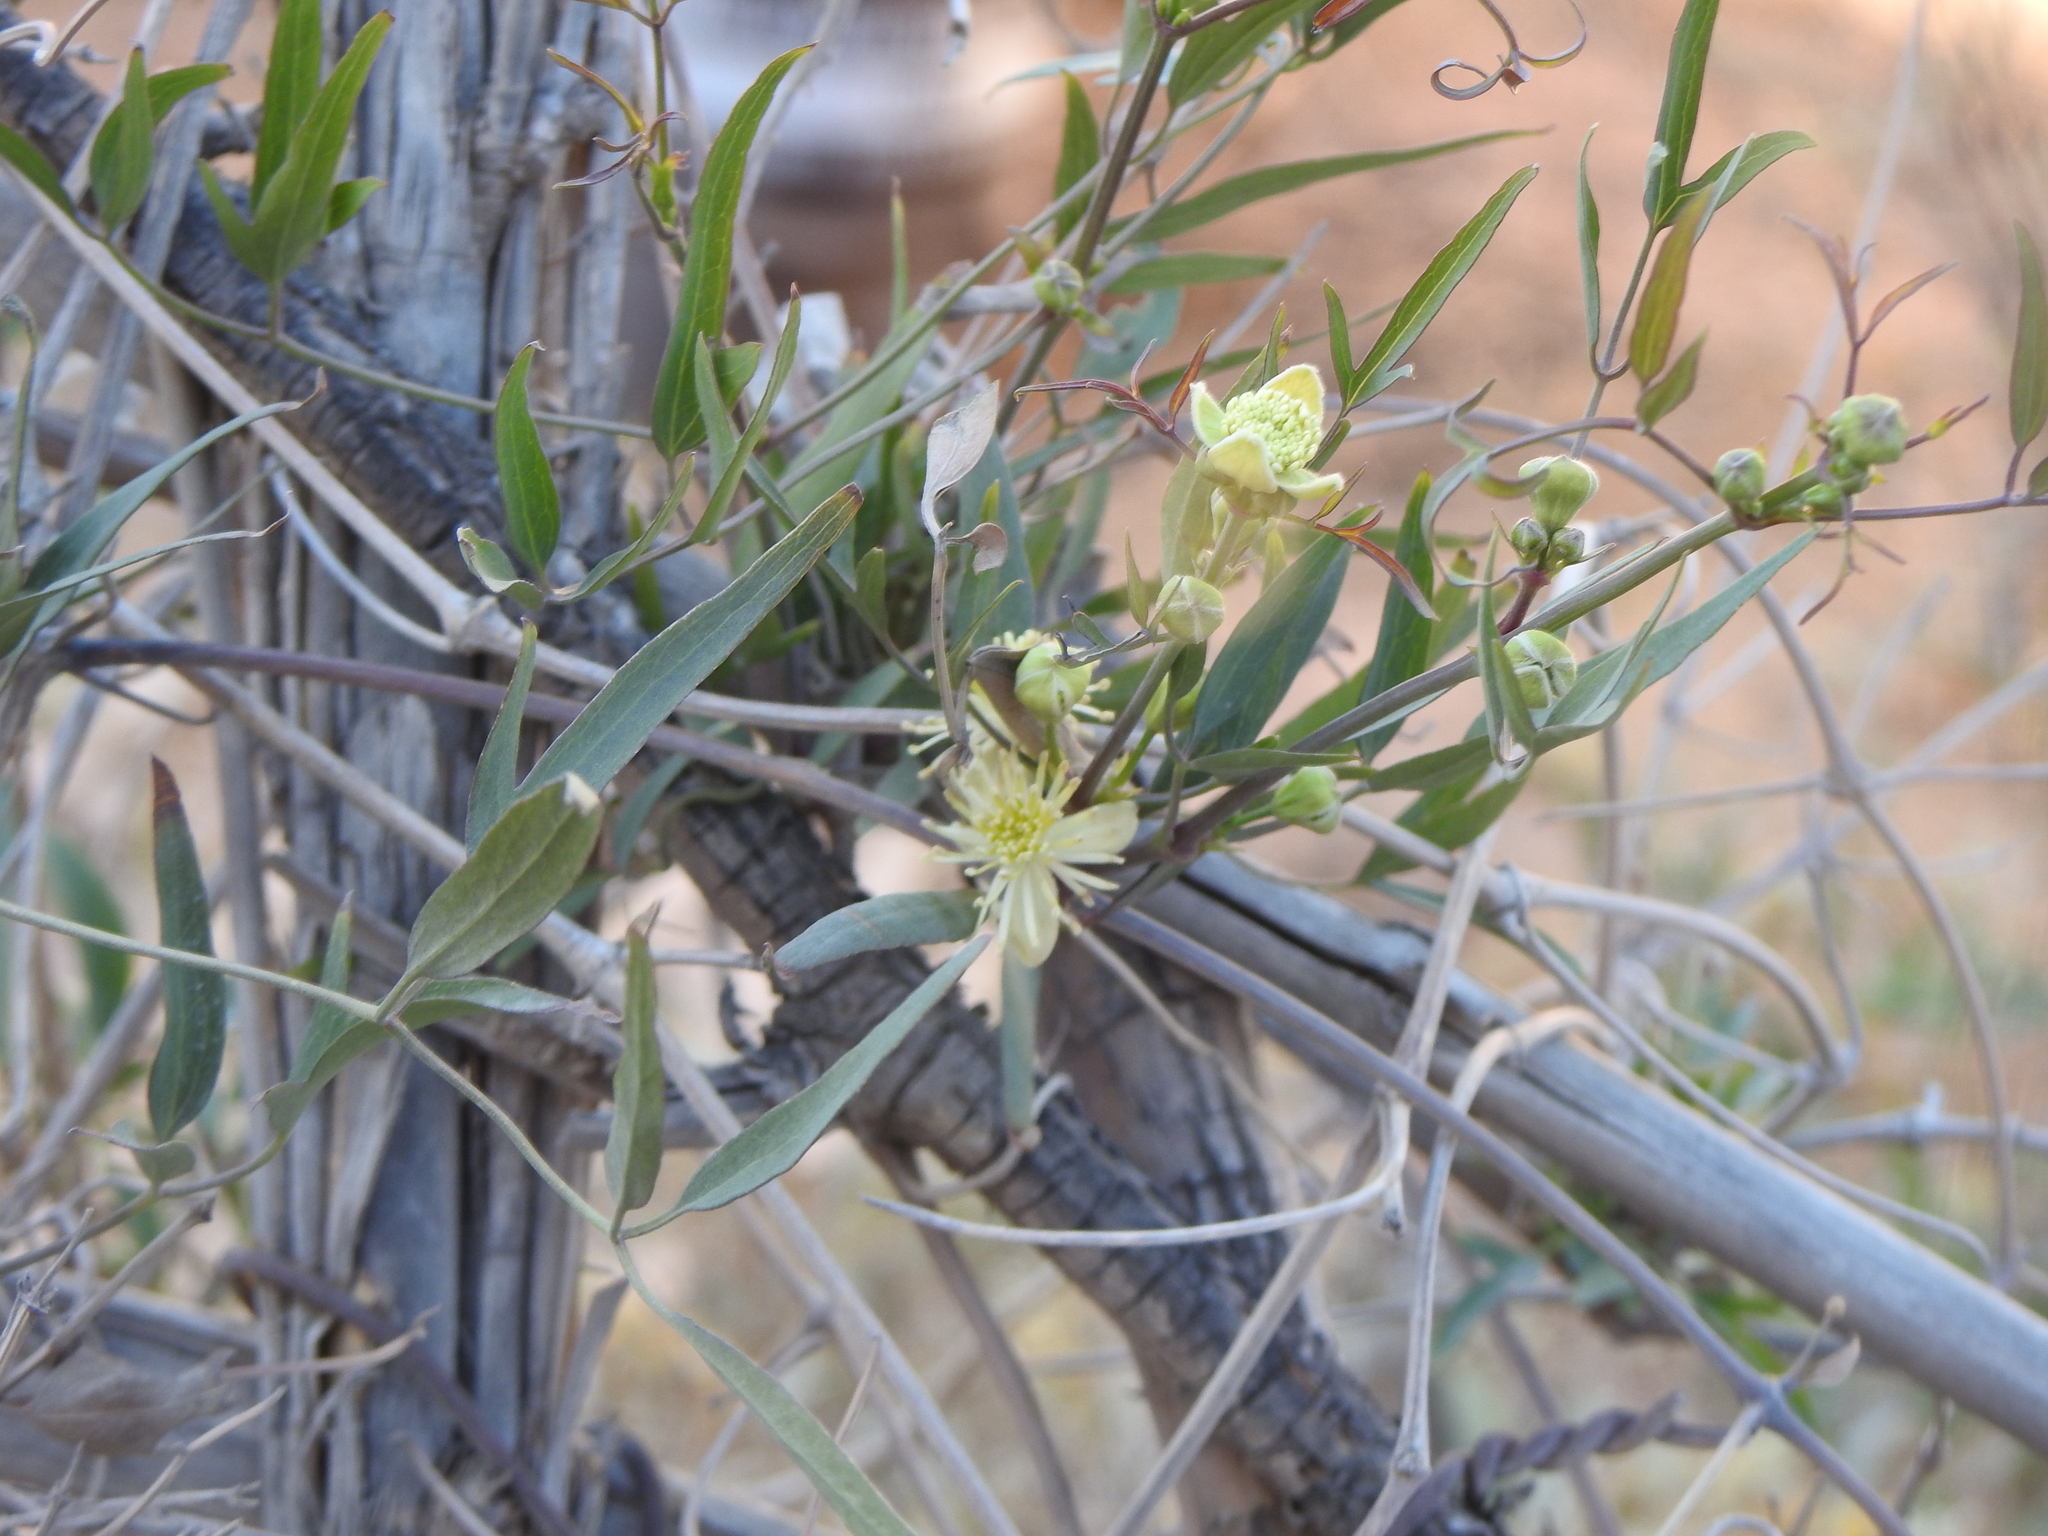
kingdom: Plantae
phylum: Tracheophyta
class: Magnoliopsida
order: Ranunculales
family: Ranunculaceae
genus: Clematis
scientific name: Clematis montevidensis
